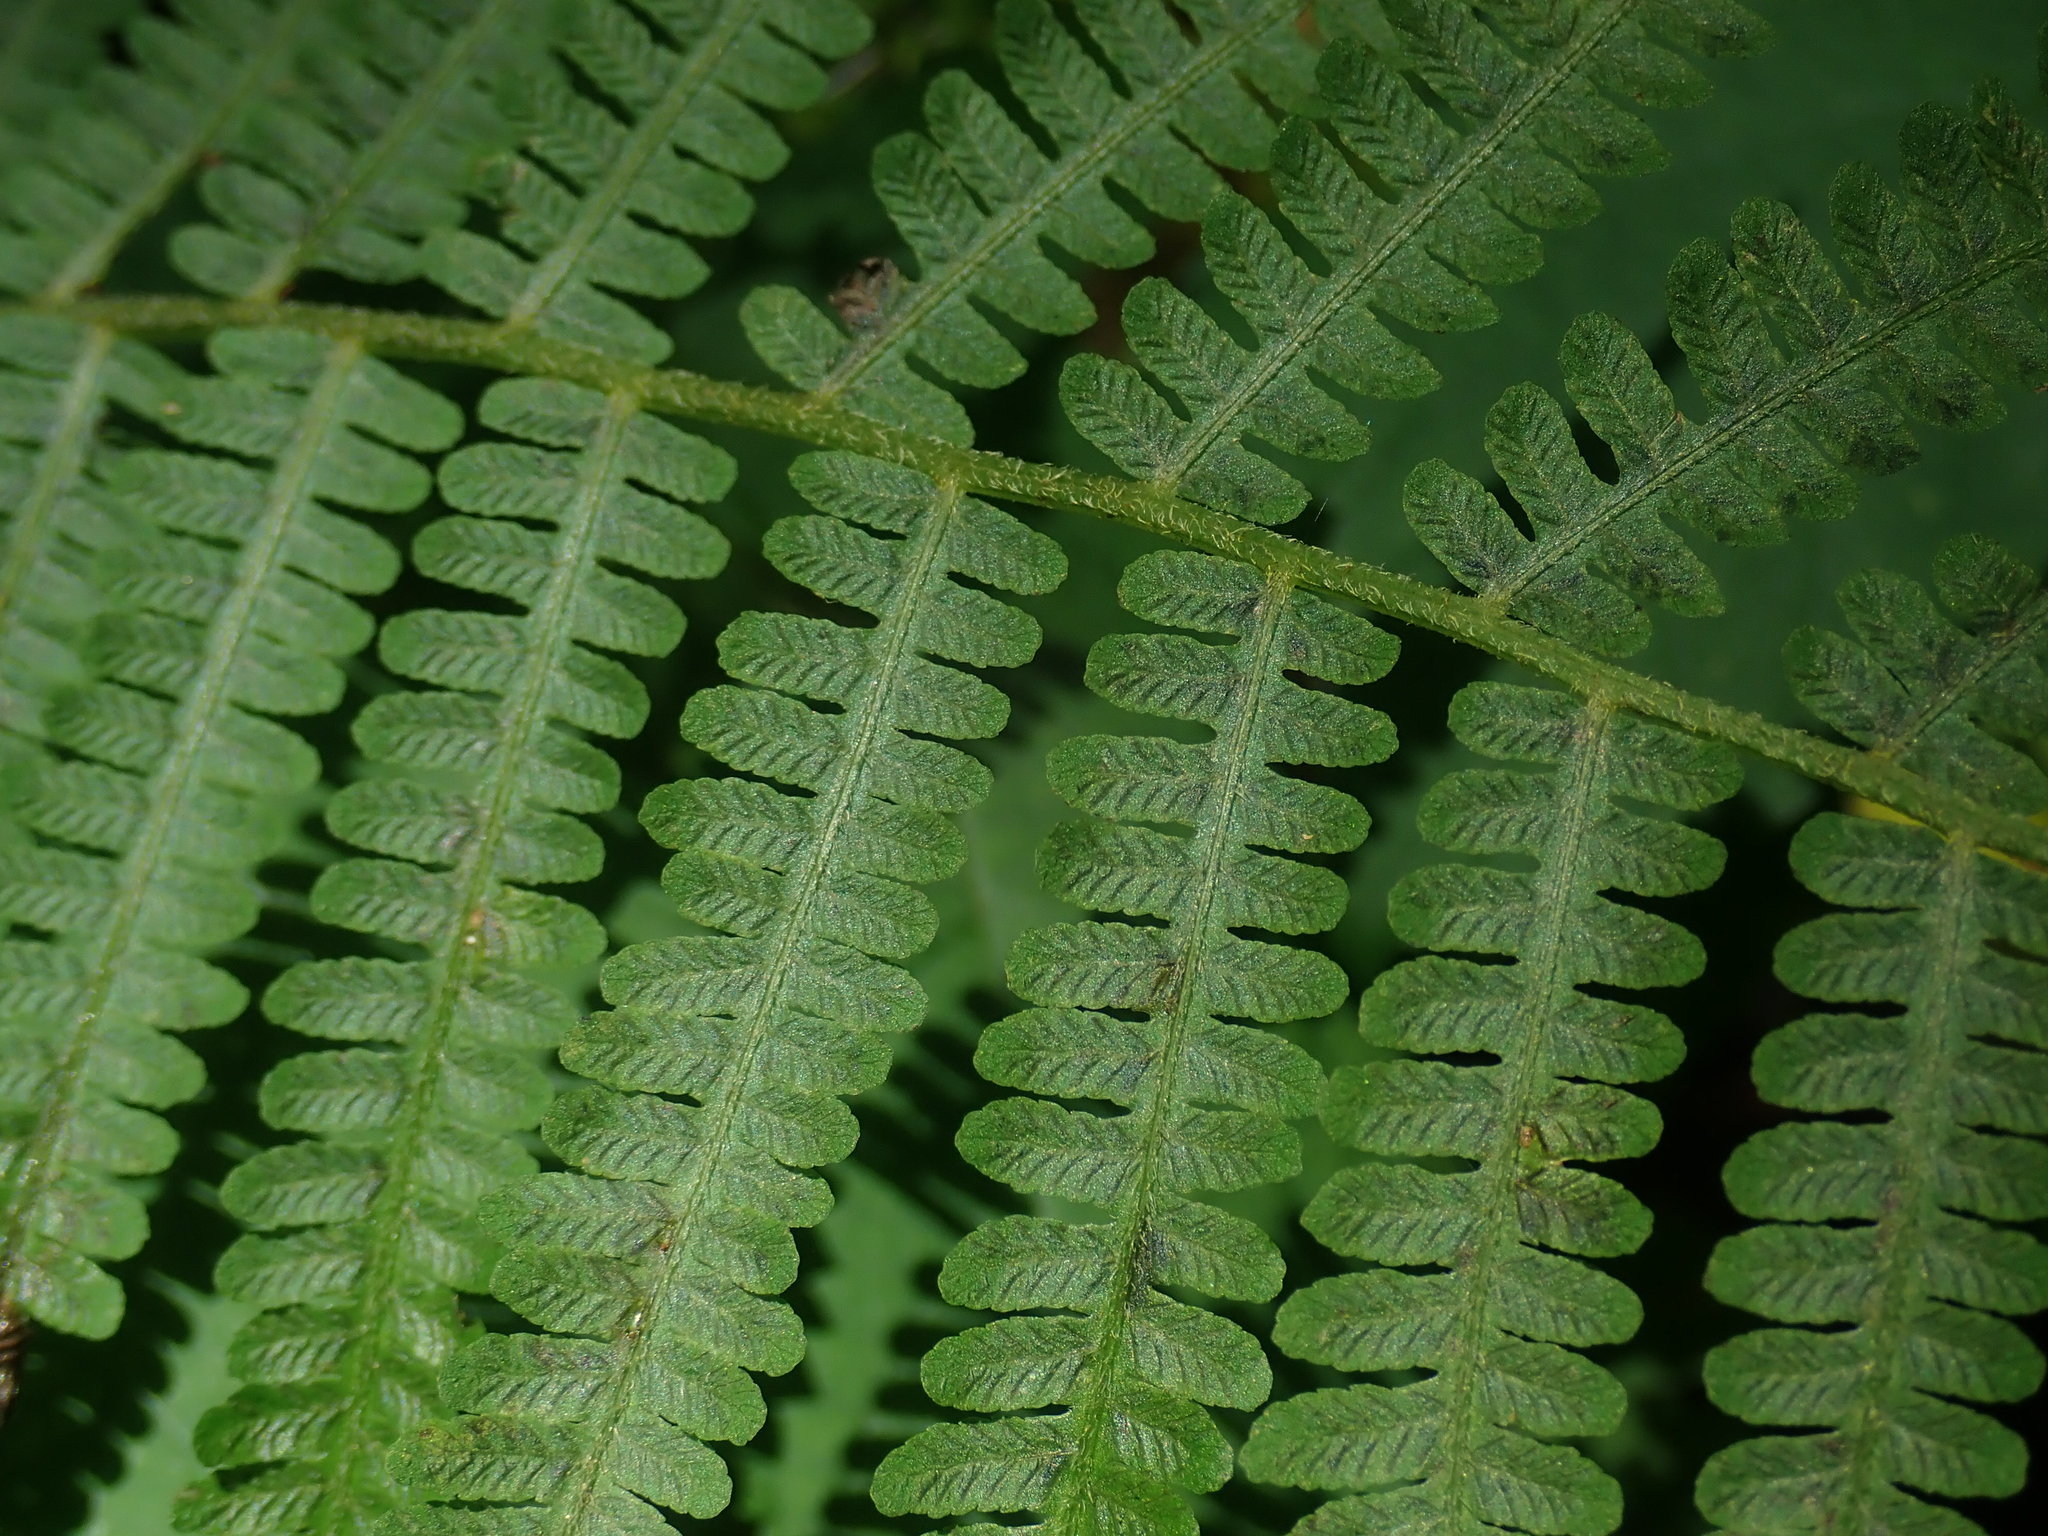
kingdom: Plantae
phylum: Tracheophyta
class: Polypodiopsida
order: Polypodiales
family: Athyriaceae
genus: Deparia
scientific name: Deparia acrostichoides
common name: Silver false spleenwort
